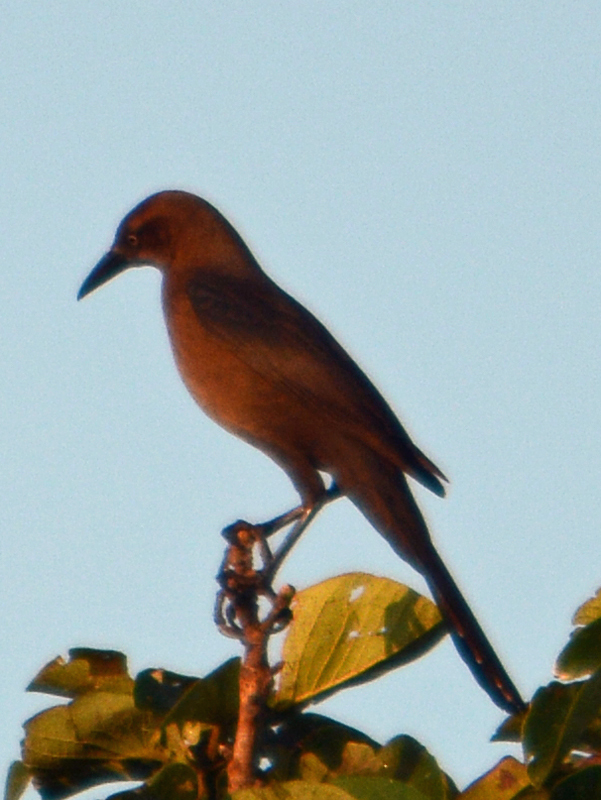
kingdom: Animalia
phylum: Chordata
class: Aves
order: Passeriformes
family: Icteridae
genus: Quiscalus
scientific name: Quiscalus mexicanus
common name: Great-tailed grackle
